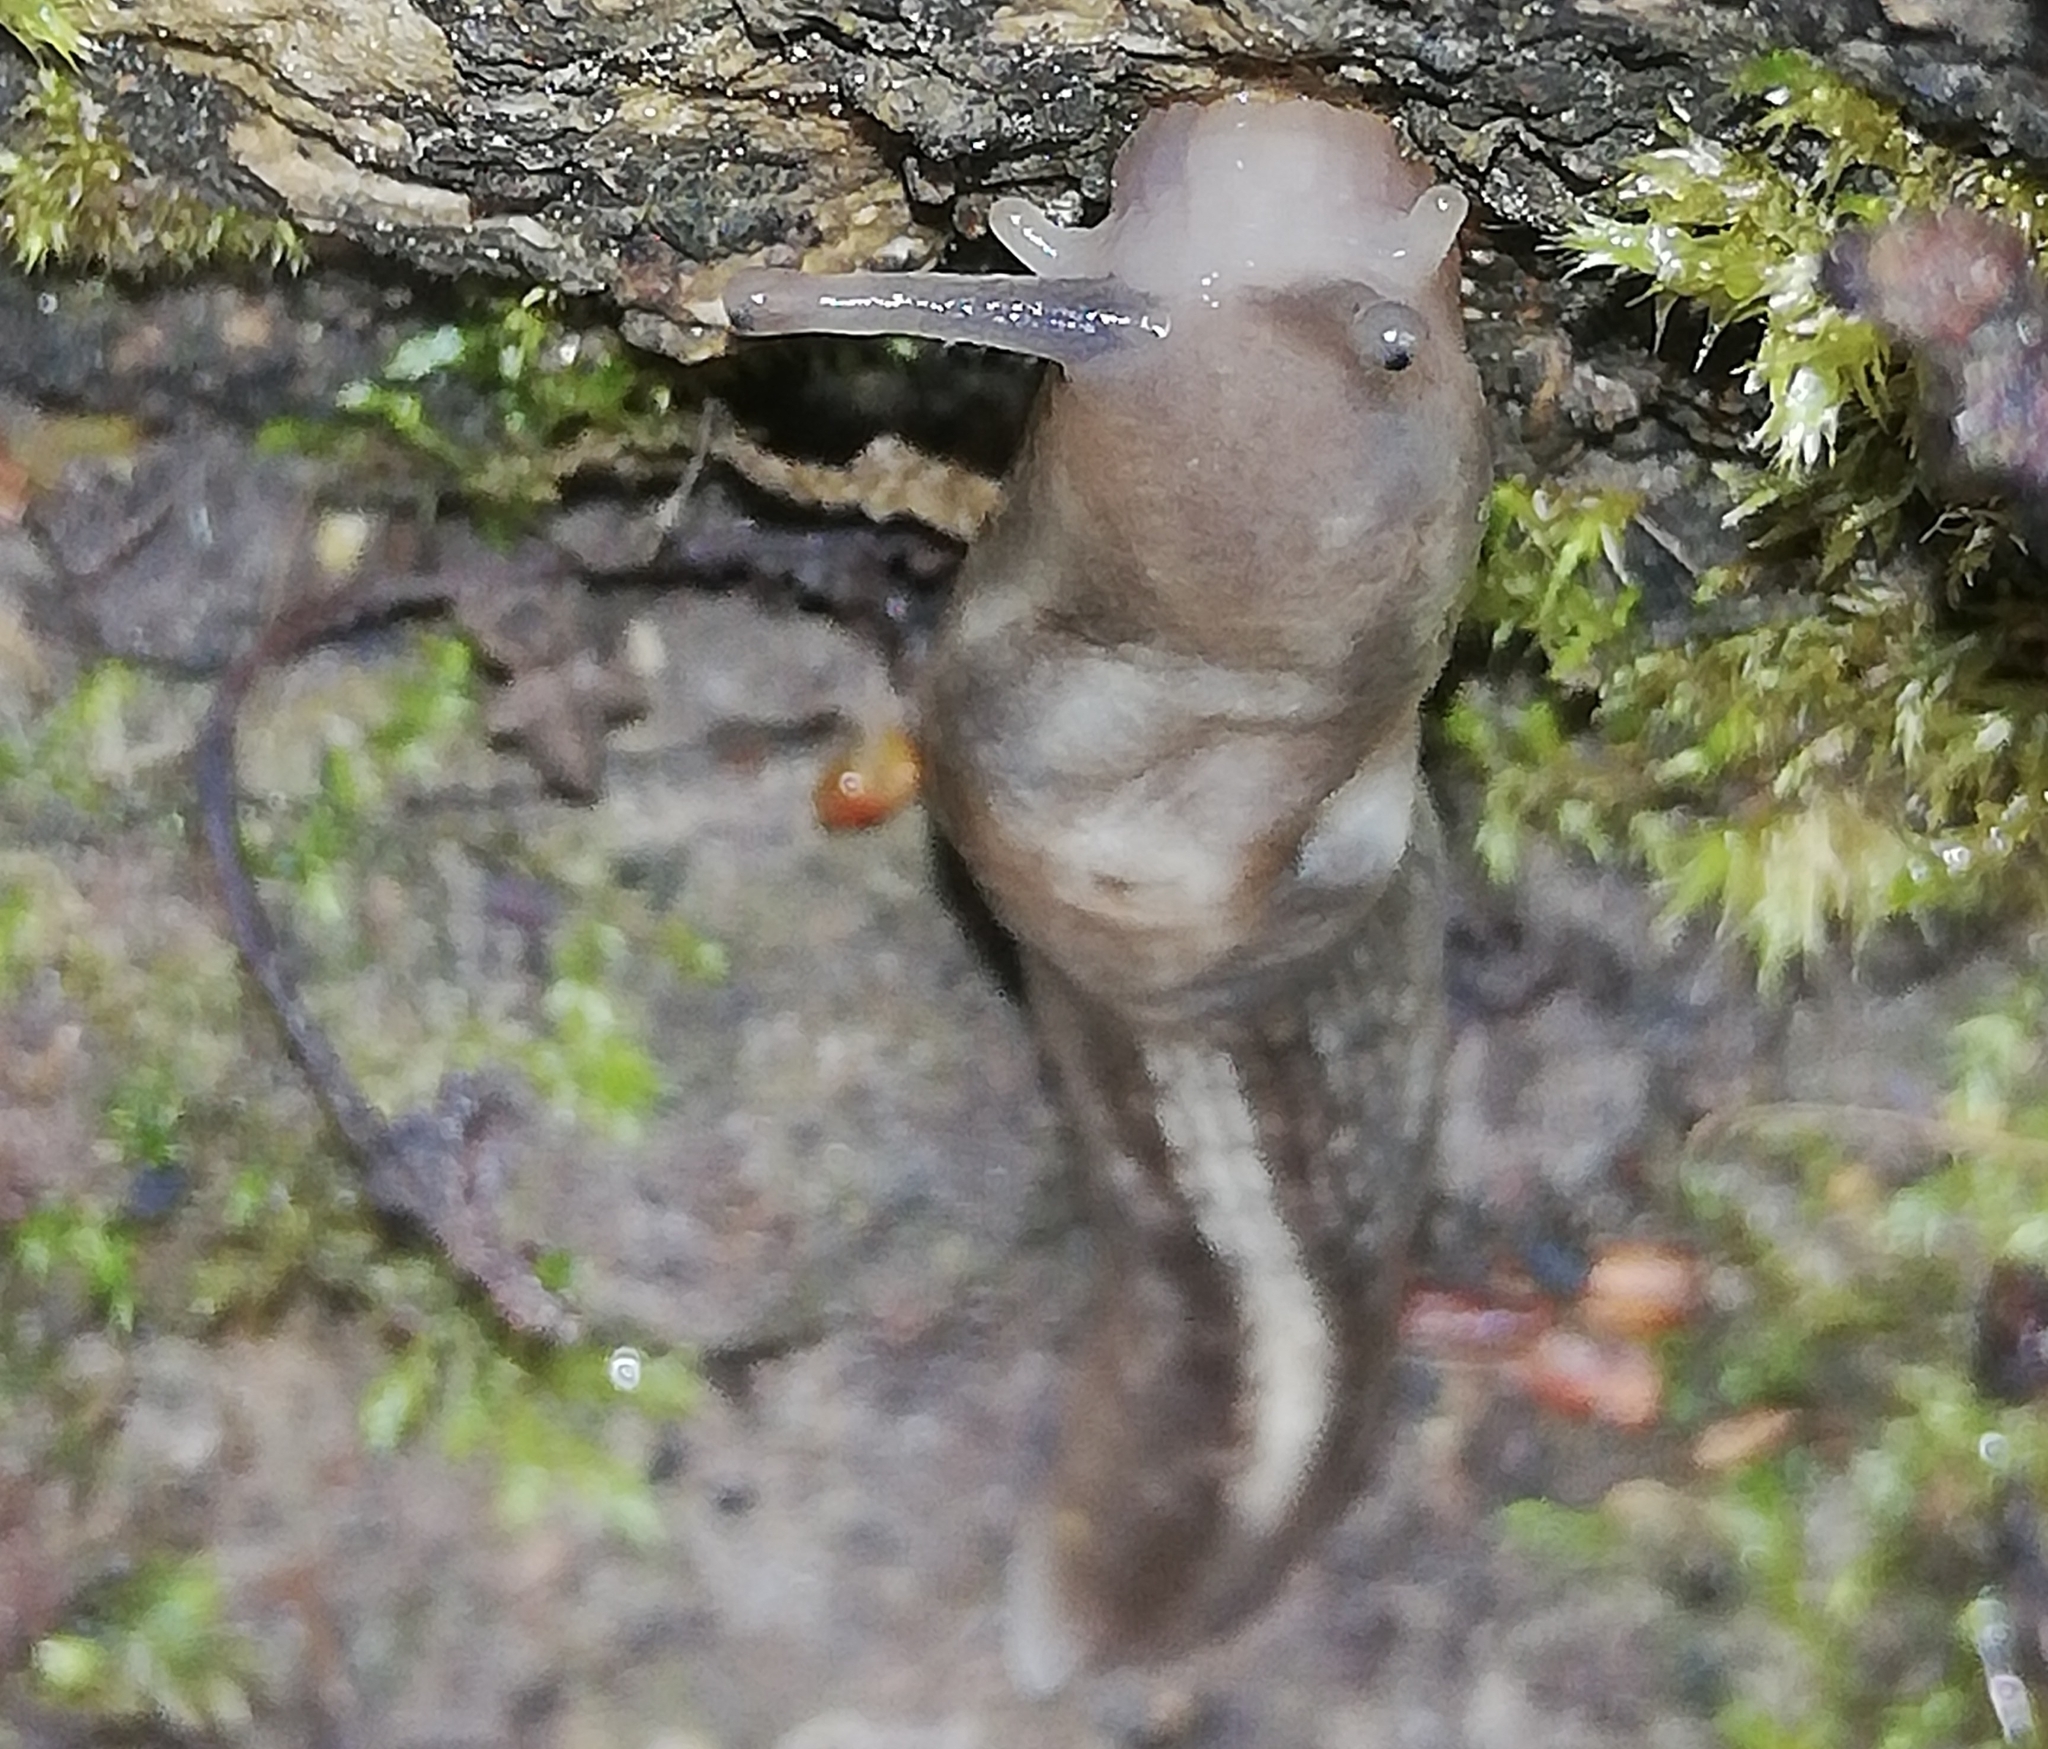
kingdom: Animalia
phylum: Mollusca
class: Gastropoda
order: Stylommatophora
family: Limacidae
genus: Lehmannia
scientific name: Lehmannia marginata
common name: Tree slug
